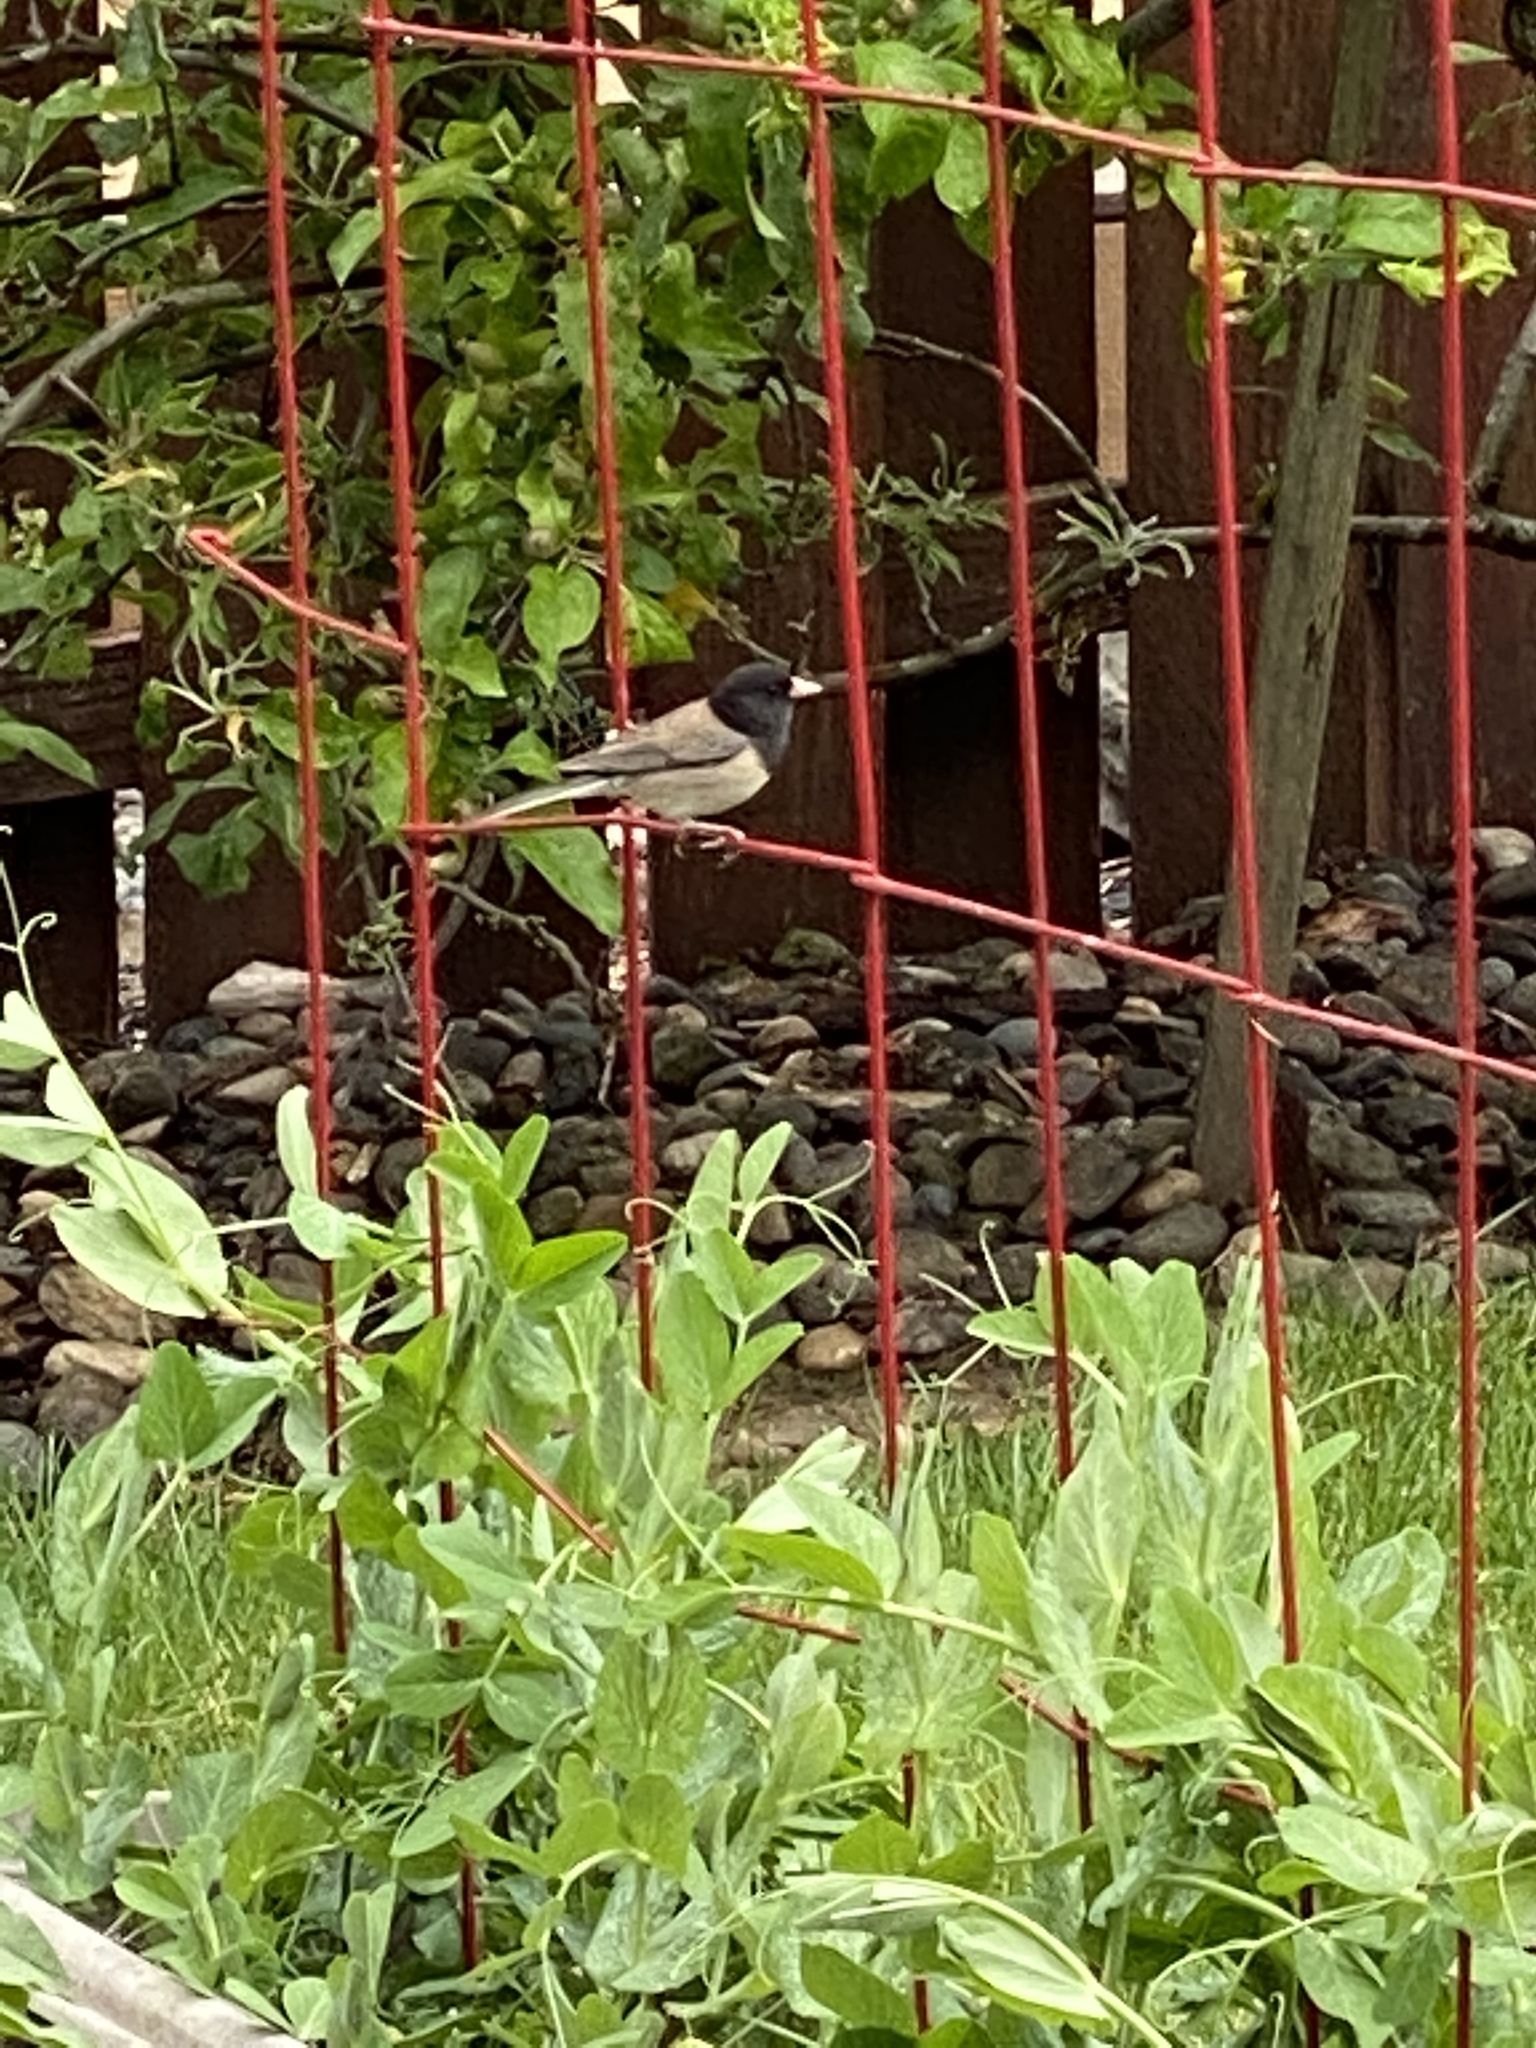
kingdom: Animalia
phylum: Chordata
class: Aves
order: Passeriformes
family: Passerellidae
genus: Junco
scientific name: Junco hyemalis
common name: Dark-eyed junco
